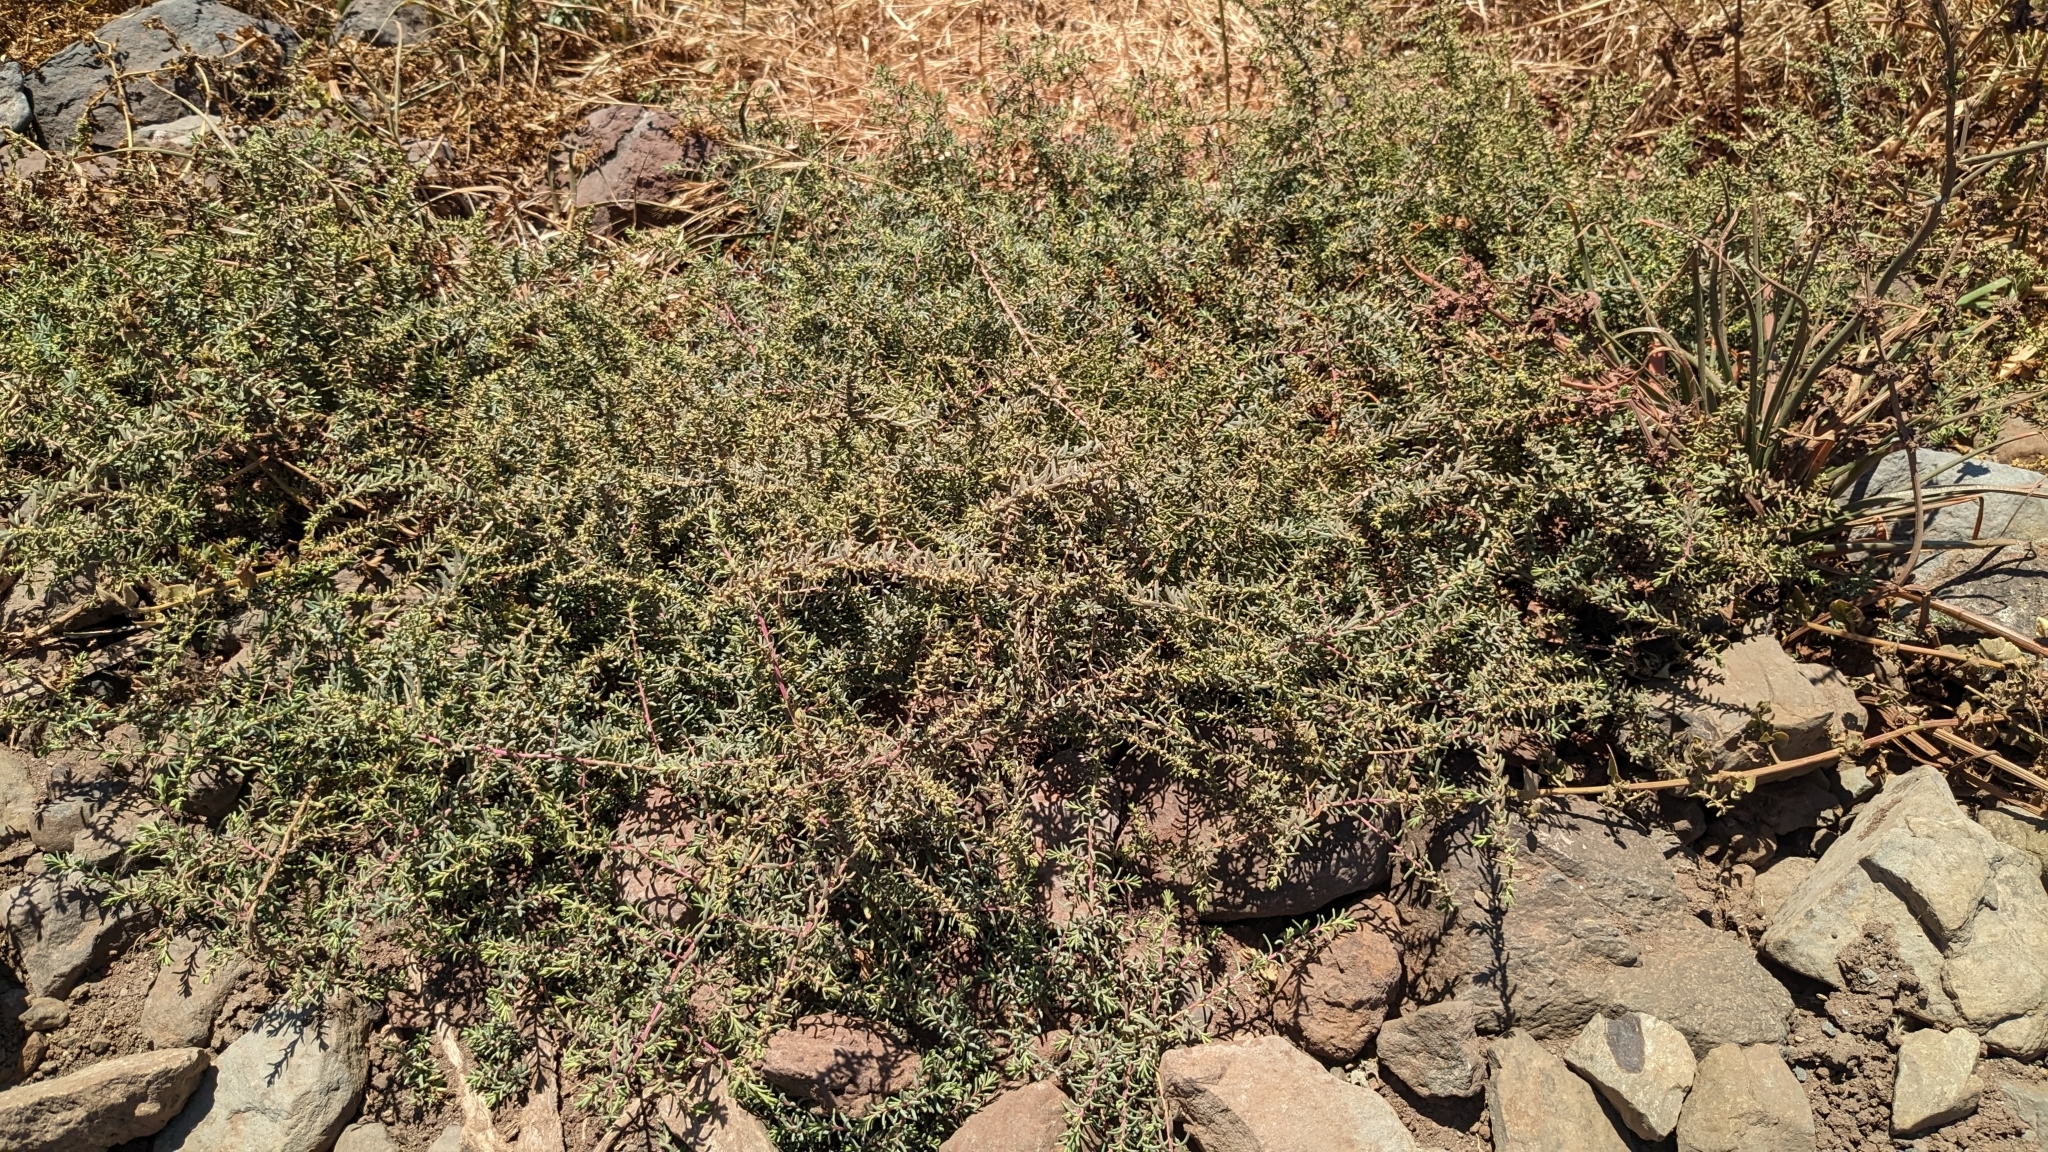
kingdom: Plantae
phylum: Tracheophyta
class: Magnoliopsida
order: Caryophyllales
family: Amaranthaceae
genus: Suaeda
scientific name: Suaeda vera
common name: Shrubby sea-blite
